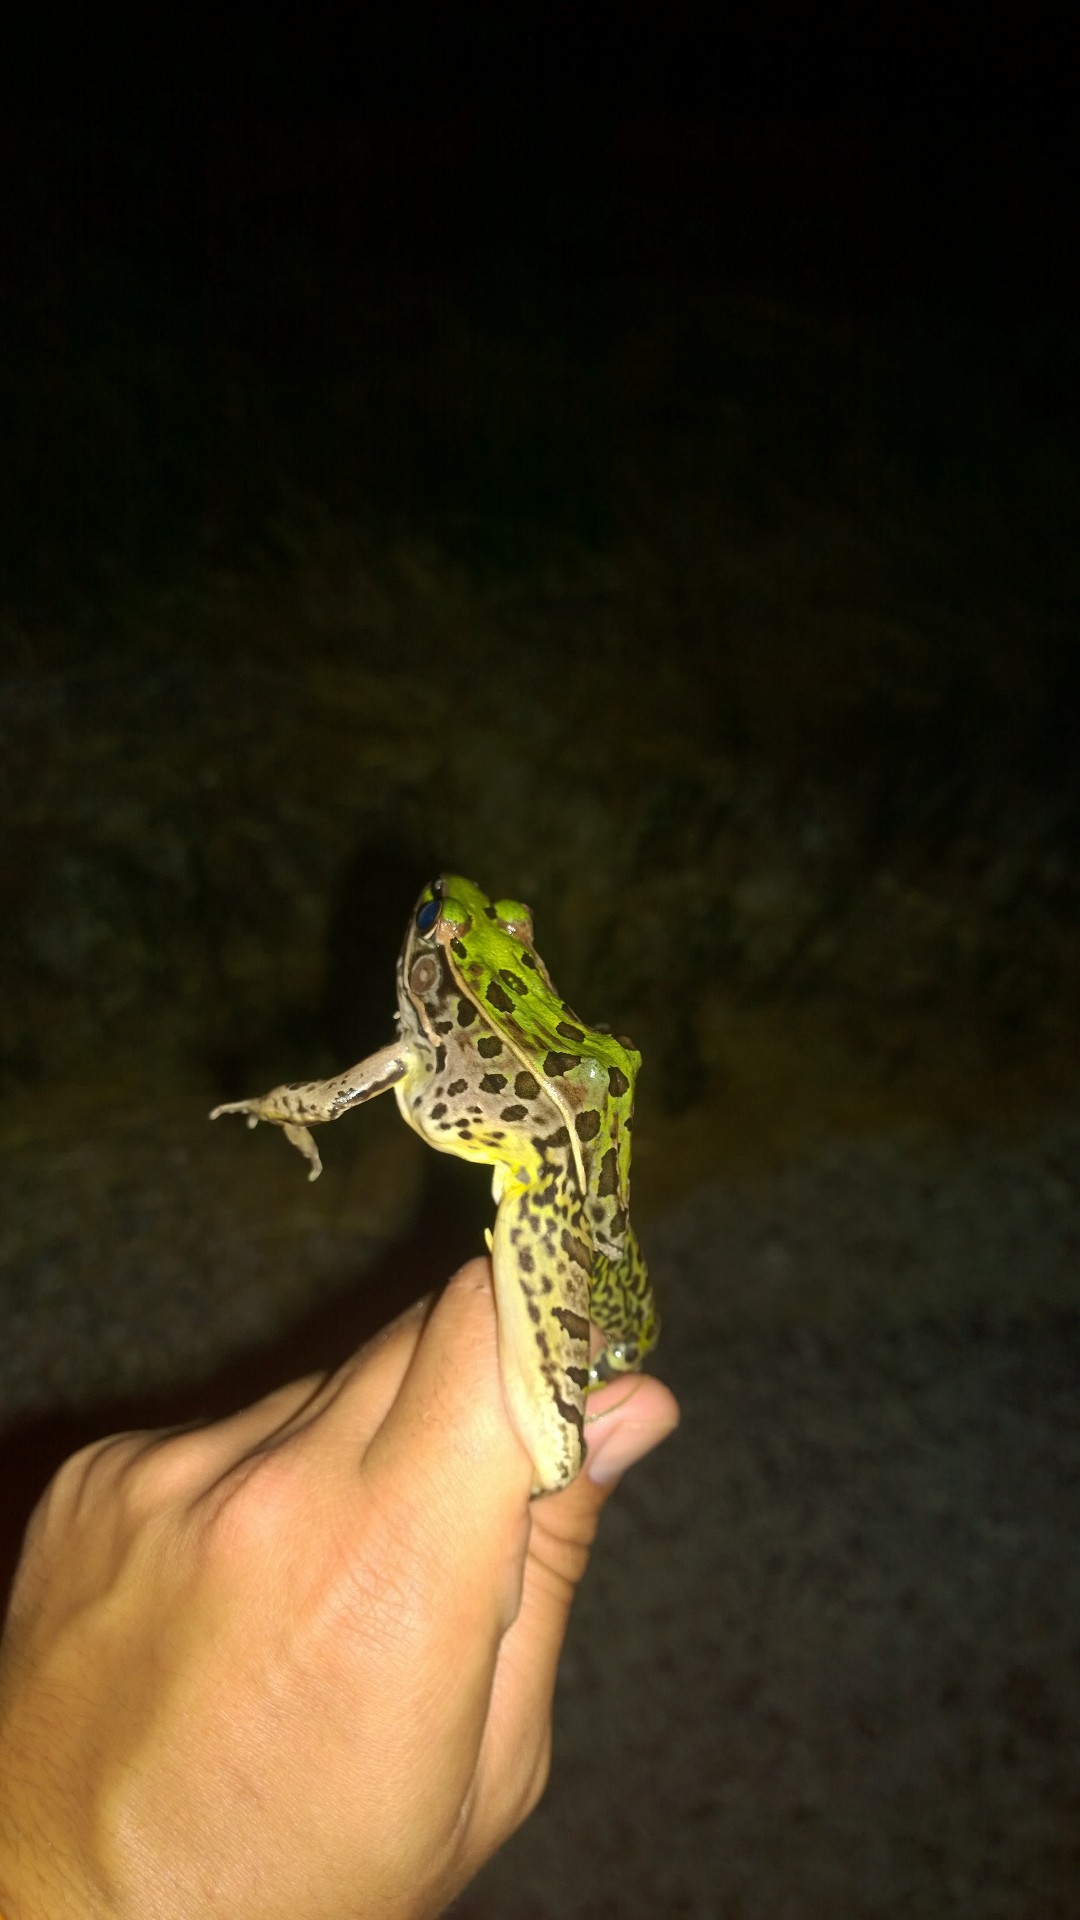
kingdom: Animalia
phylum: Chordata
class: Amphibia
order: Anura
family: Ranidae
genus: Lithobates
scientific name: Lithobates sphenocephalus
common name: Southern leopard frog
